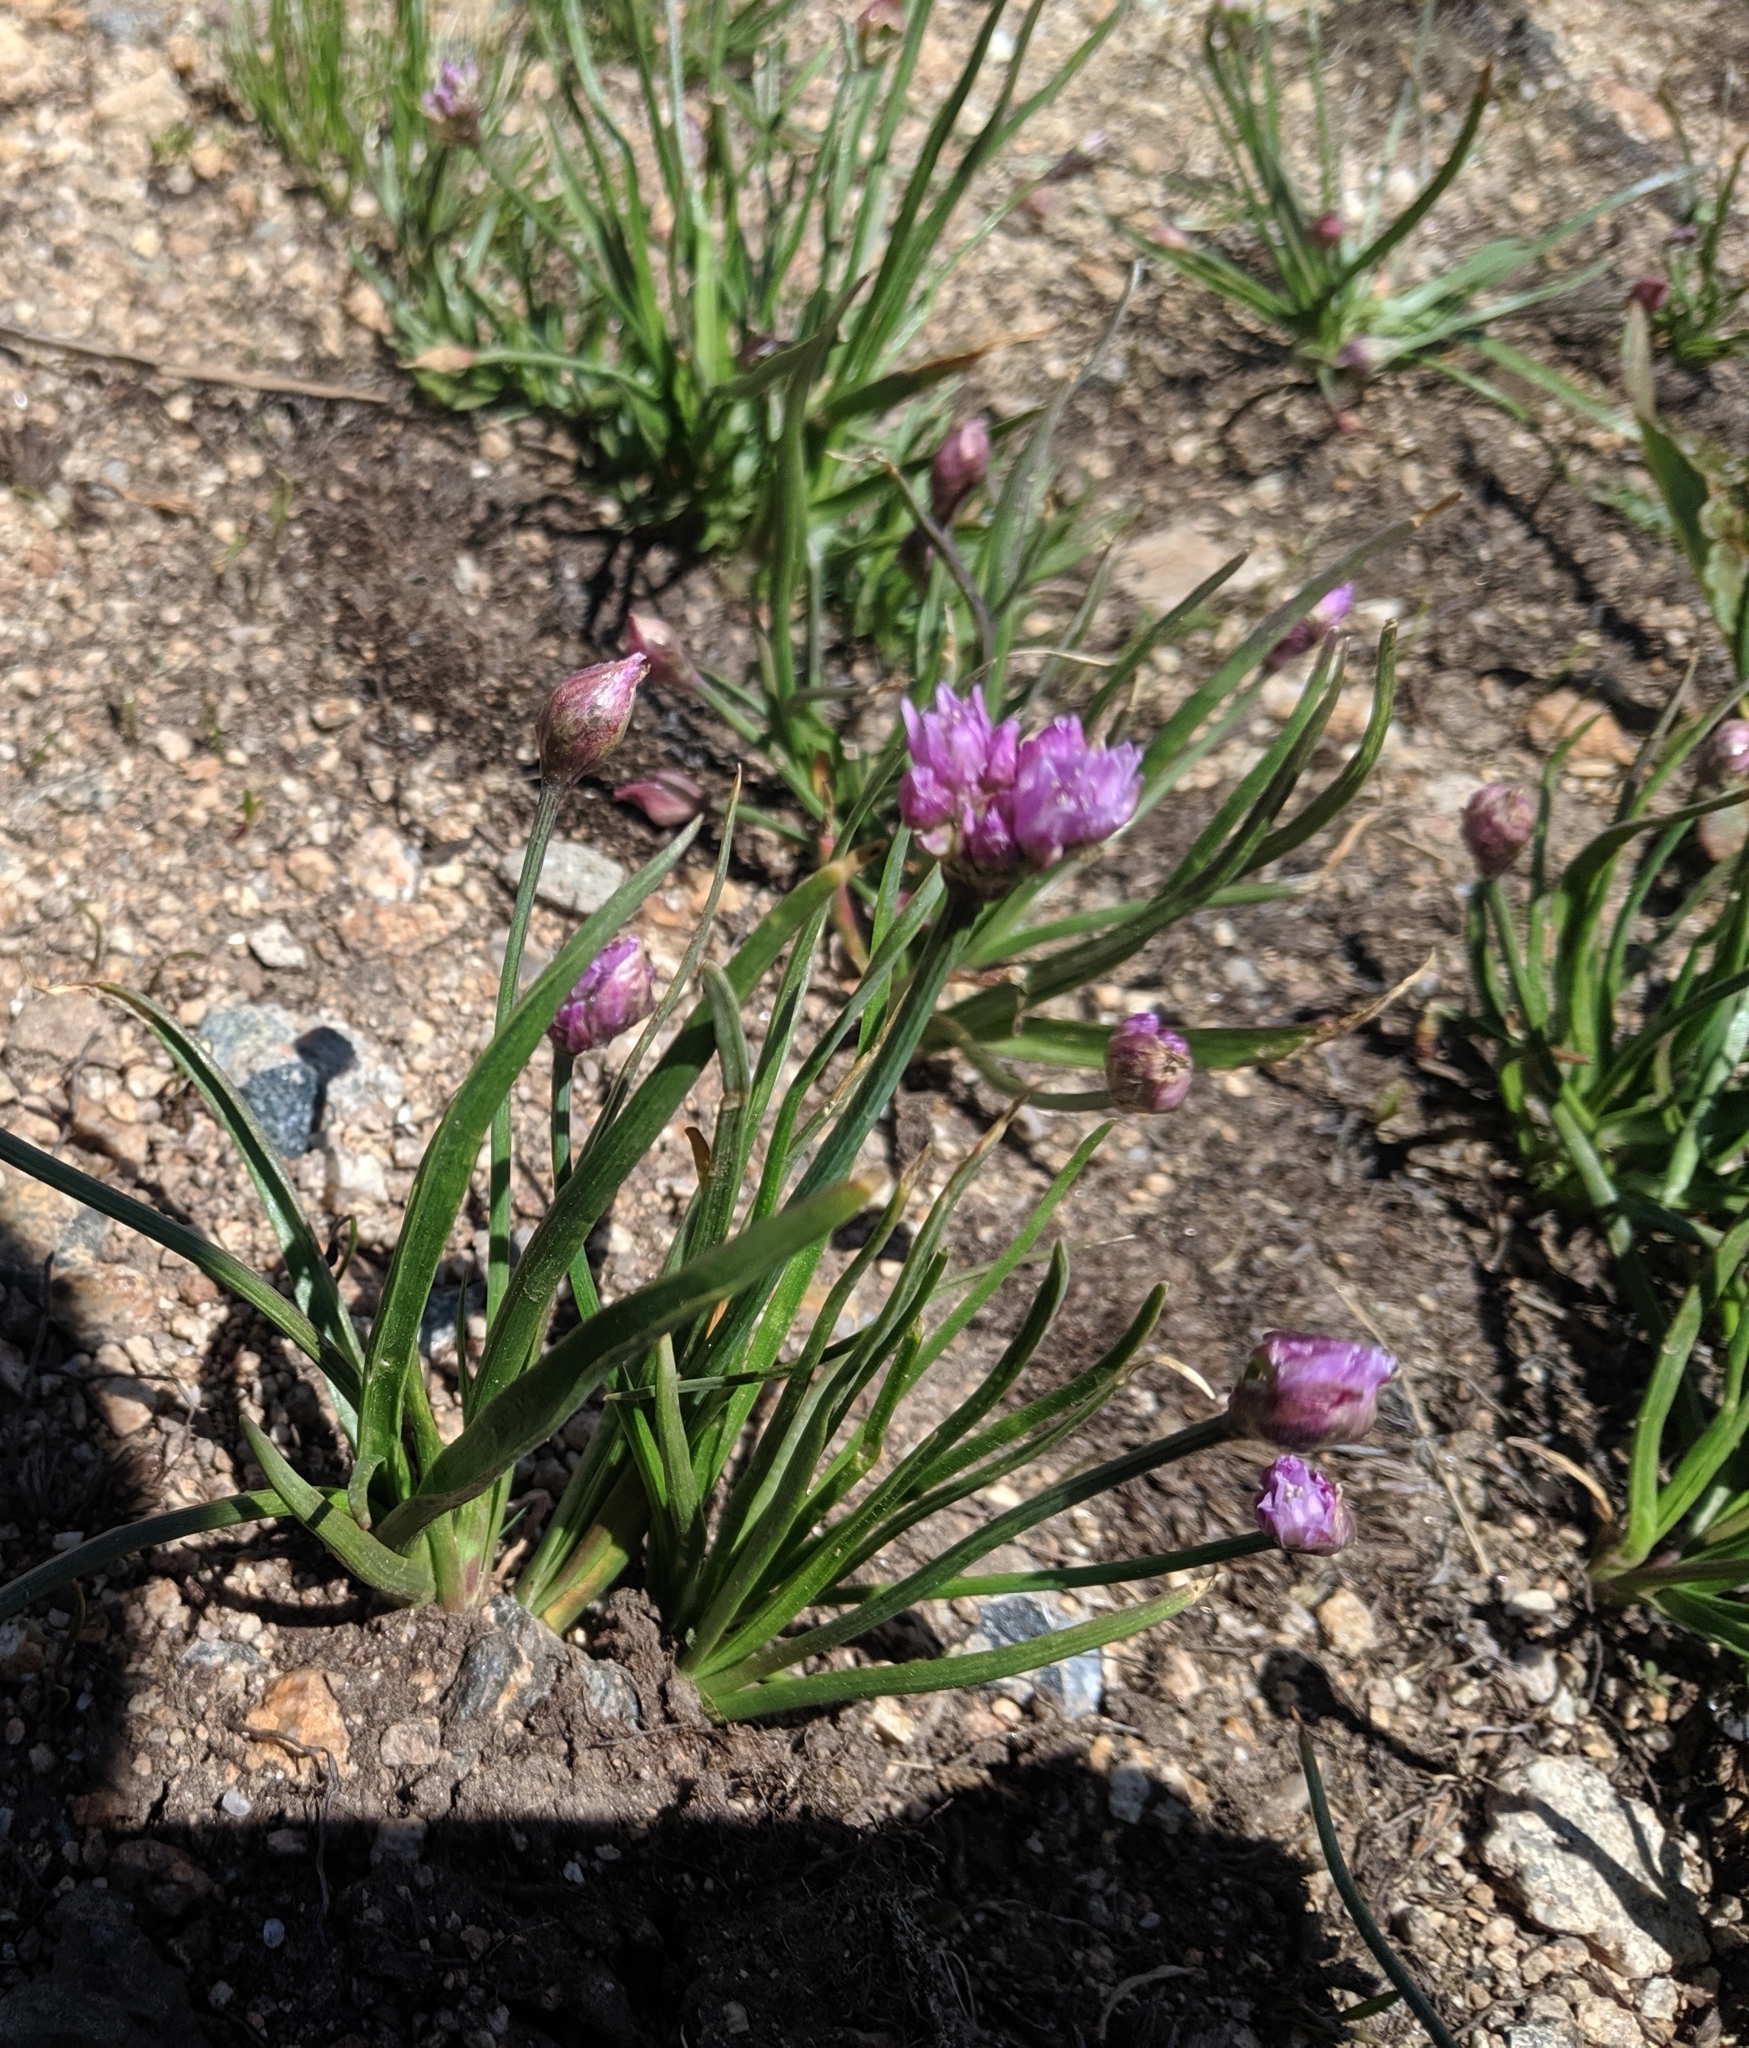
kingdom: Plantae
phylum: Tracheophyta
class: Liliopsida
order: Asparagales
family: Amaryllidaceae
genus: Allium
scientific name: Allium geyeri
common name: Geyer's onion
